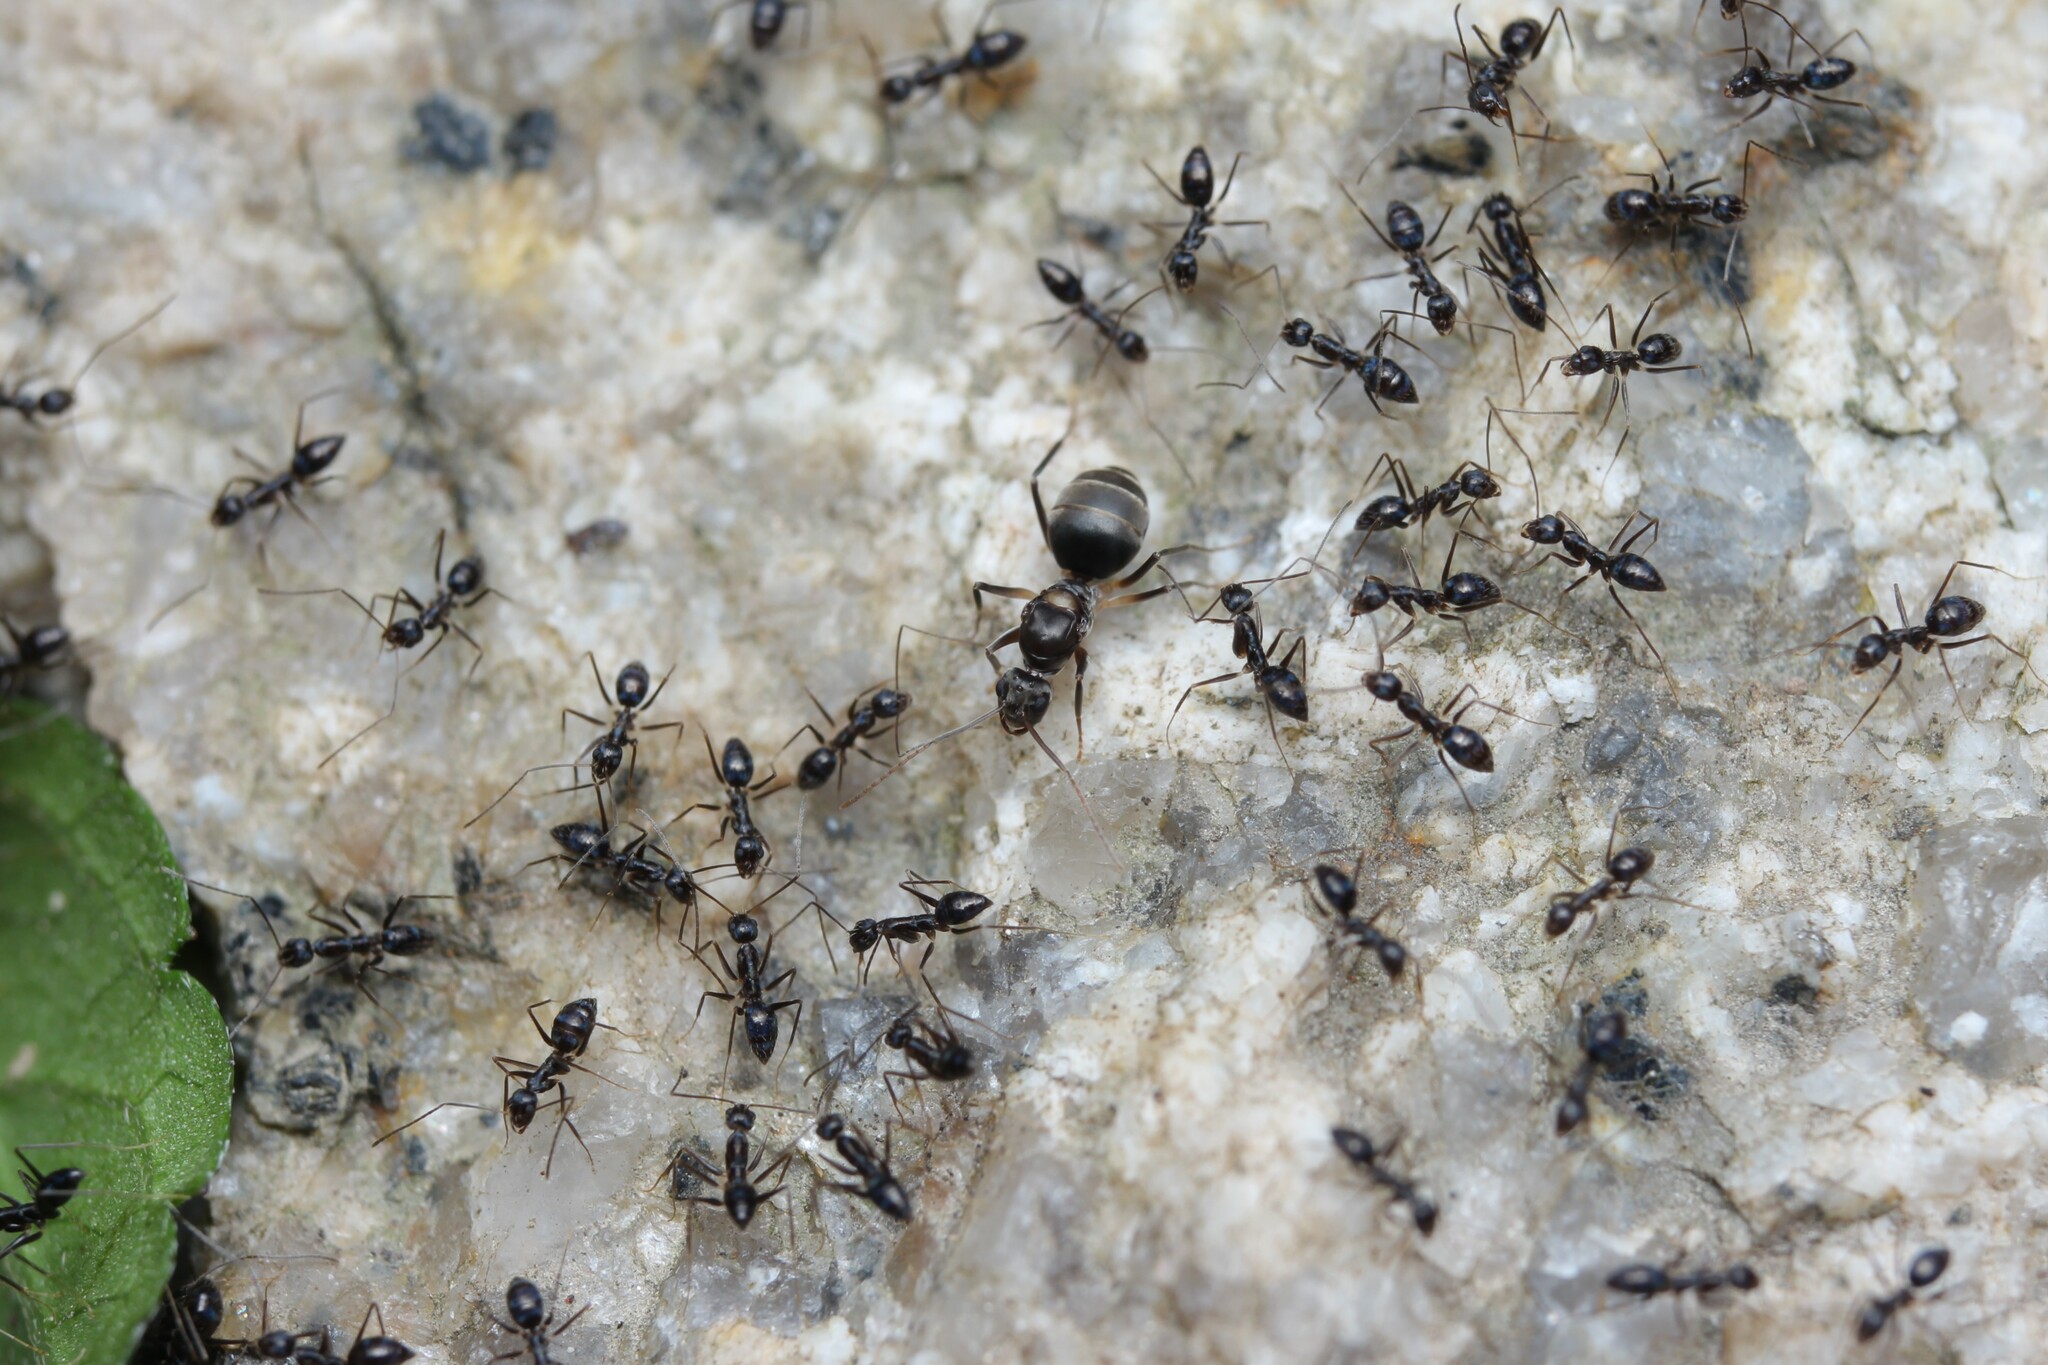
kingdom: Animalia
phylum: Arthropoda
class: Insecta
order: Hymenoptera
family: Formicidae
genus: Paratrechina
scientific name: Paratrechina longicornis
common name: Longhorned crazy ant
